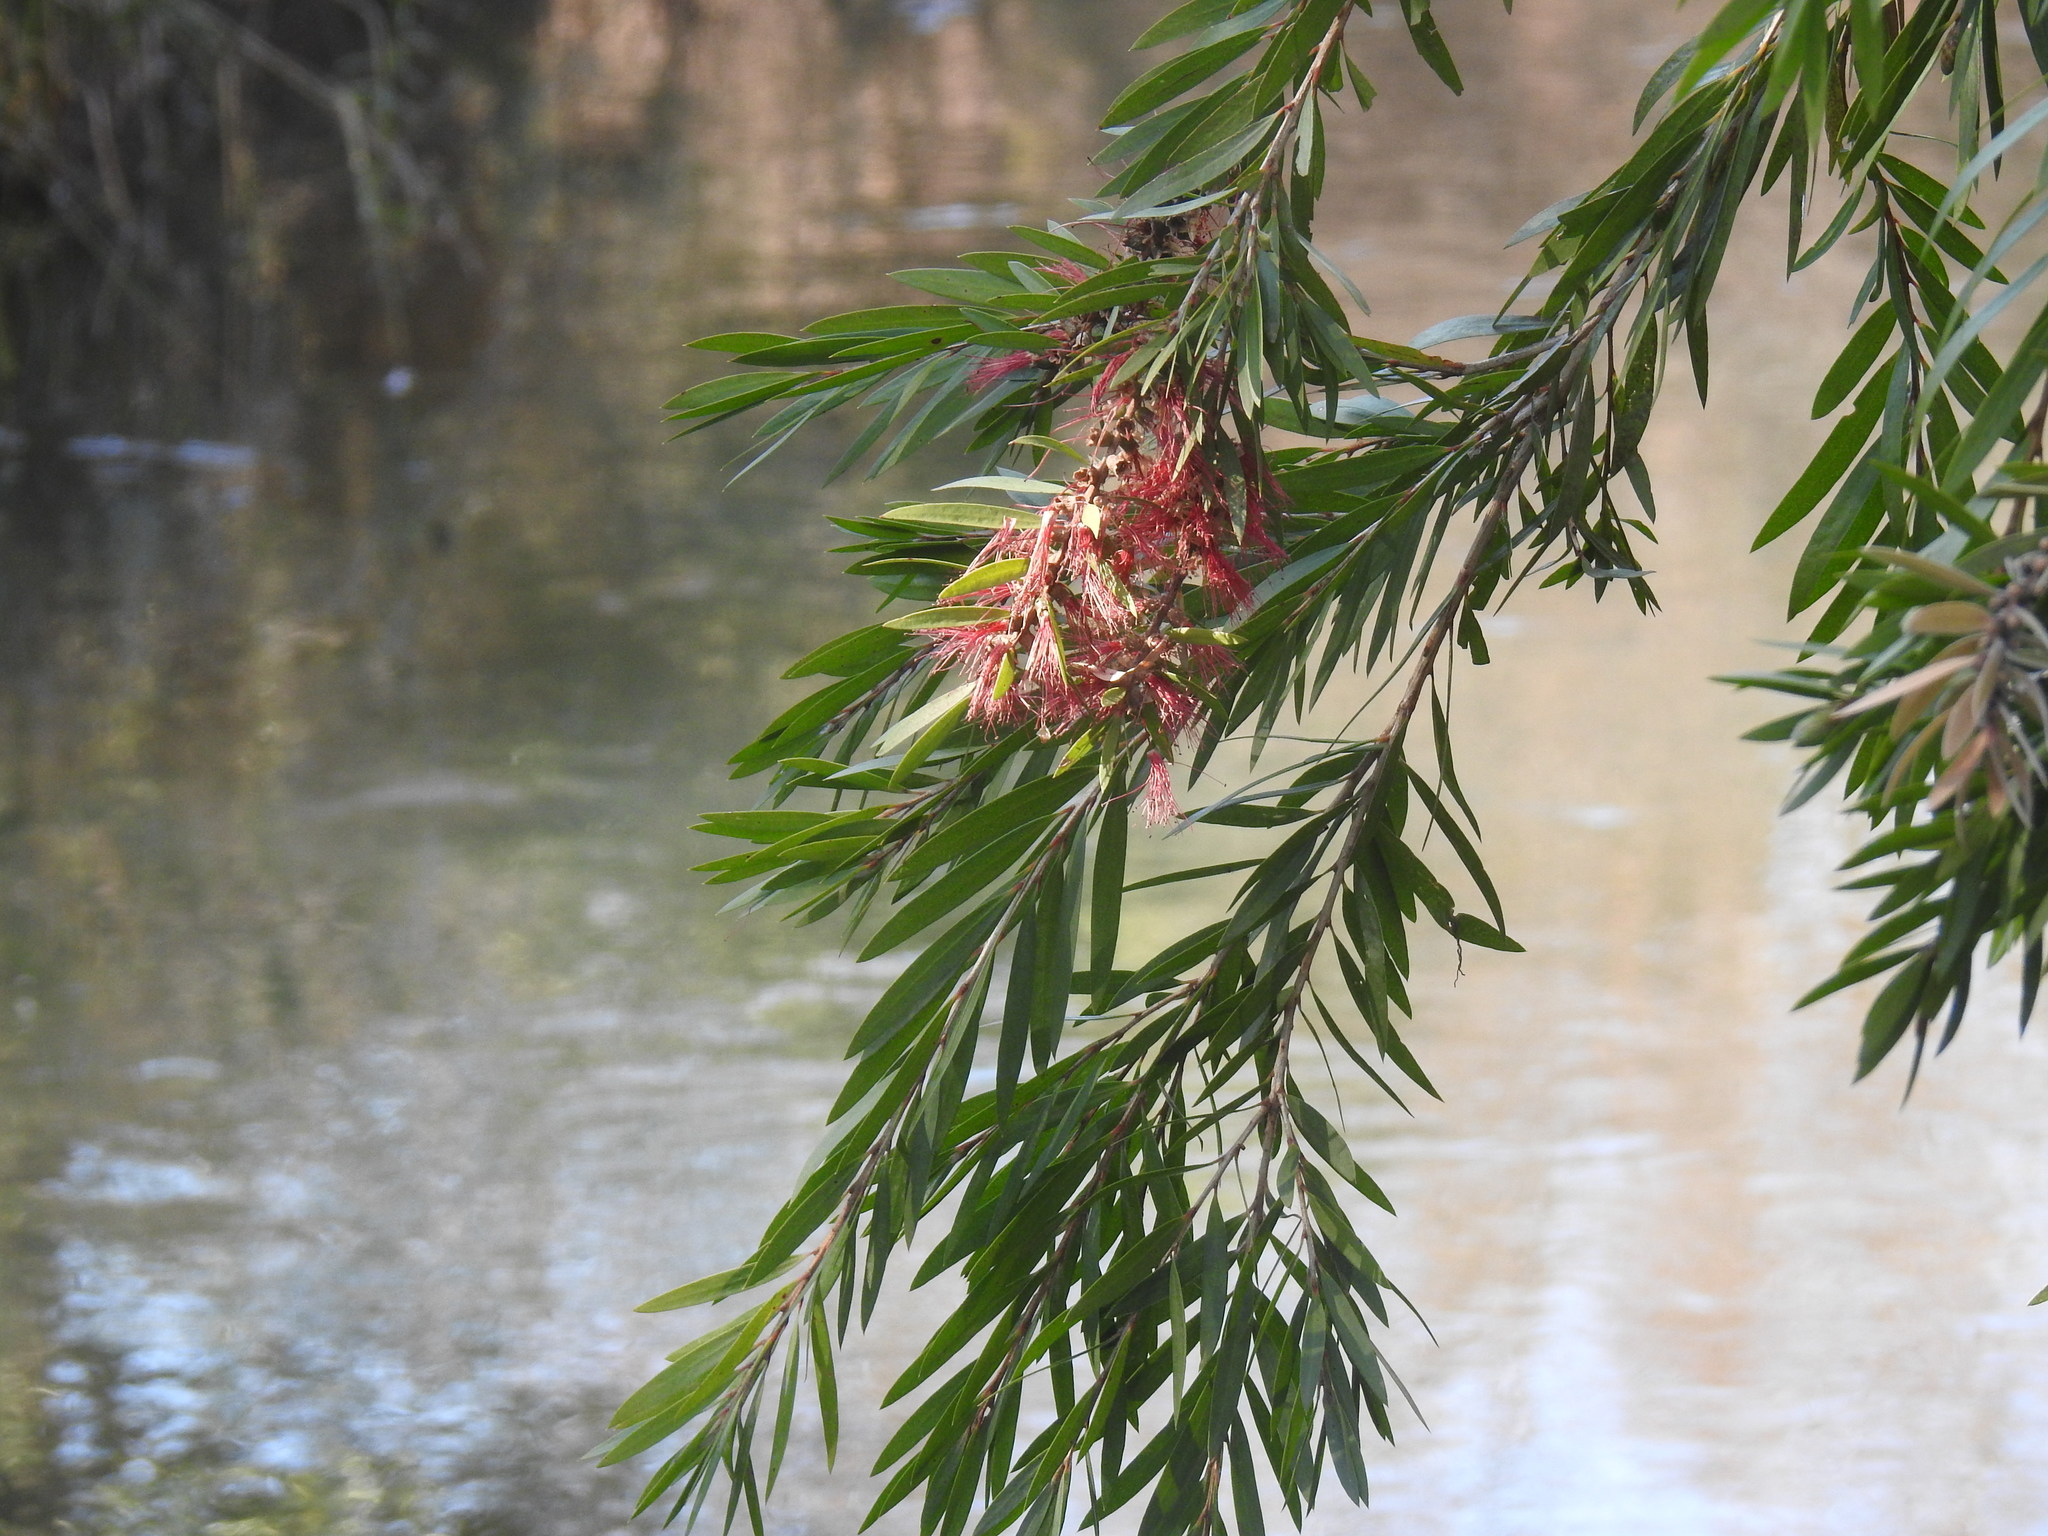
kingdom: Plantae
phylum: Tracheophyta
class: Magnoliopsida
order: Myrtales
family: Myrtaceae
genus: Callistemon
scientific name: Callistemon viminalis
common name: Drooping bottlebrush
